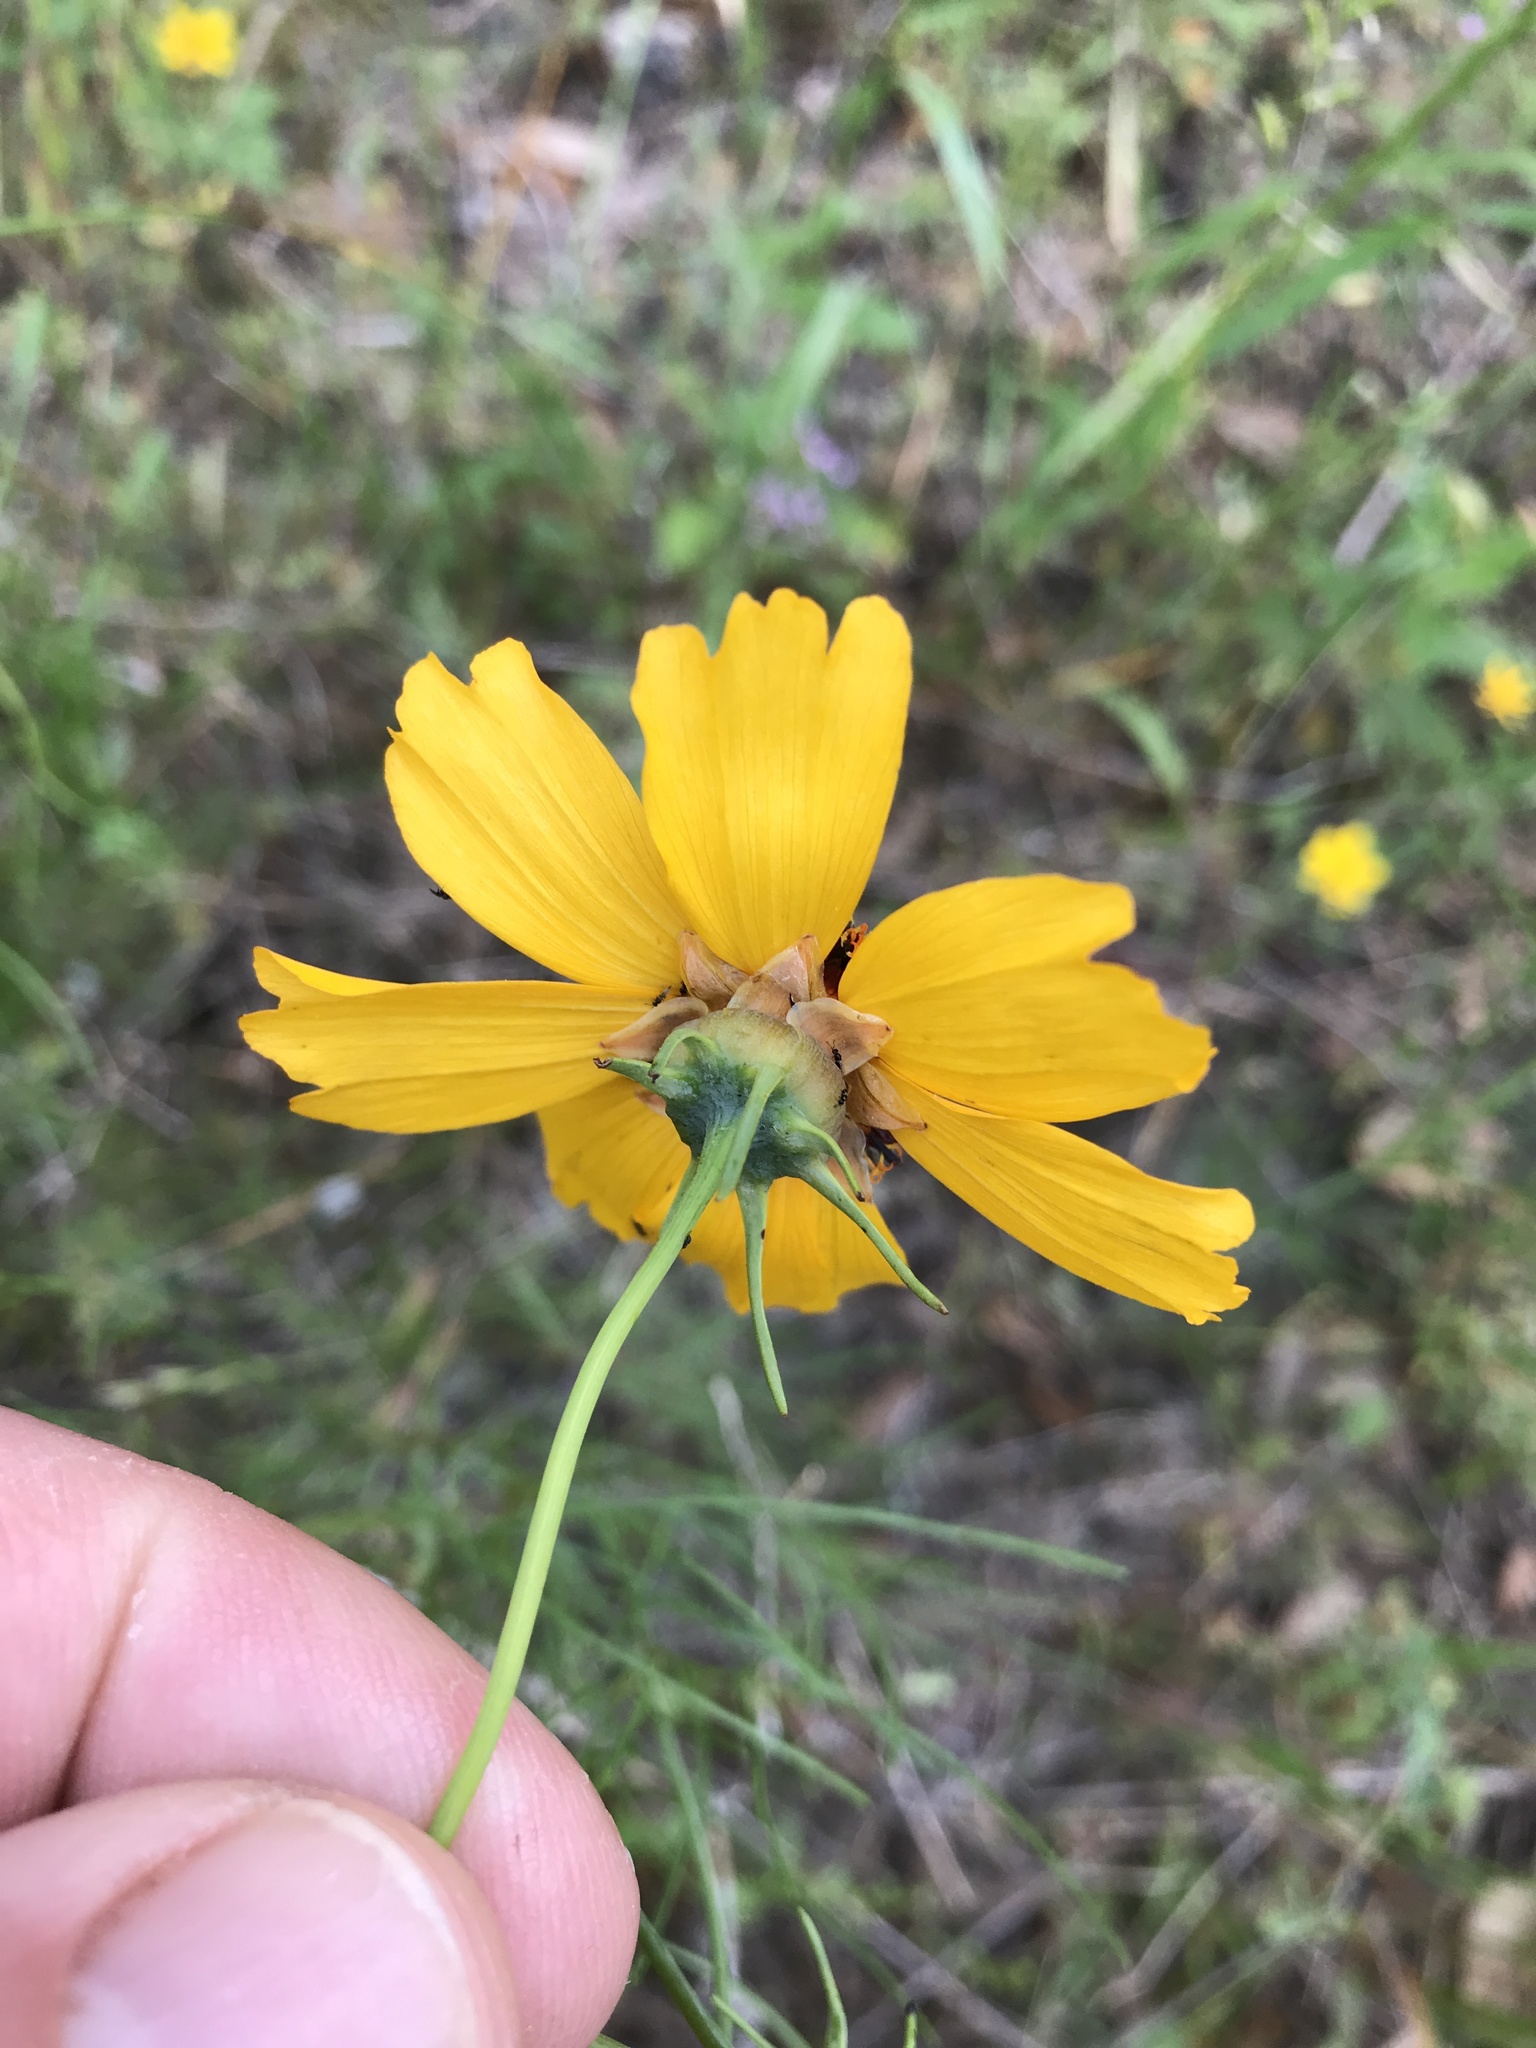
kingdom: Plantae
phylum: Tracheophyta
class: Magnoliopsida
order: Asterales
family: Asteraceae
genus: Thelesperma
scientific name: Thelesperma filifolium
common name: Stiff greenthread
